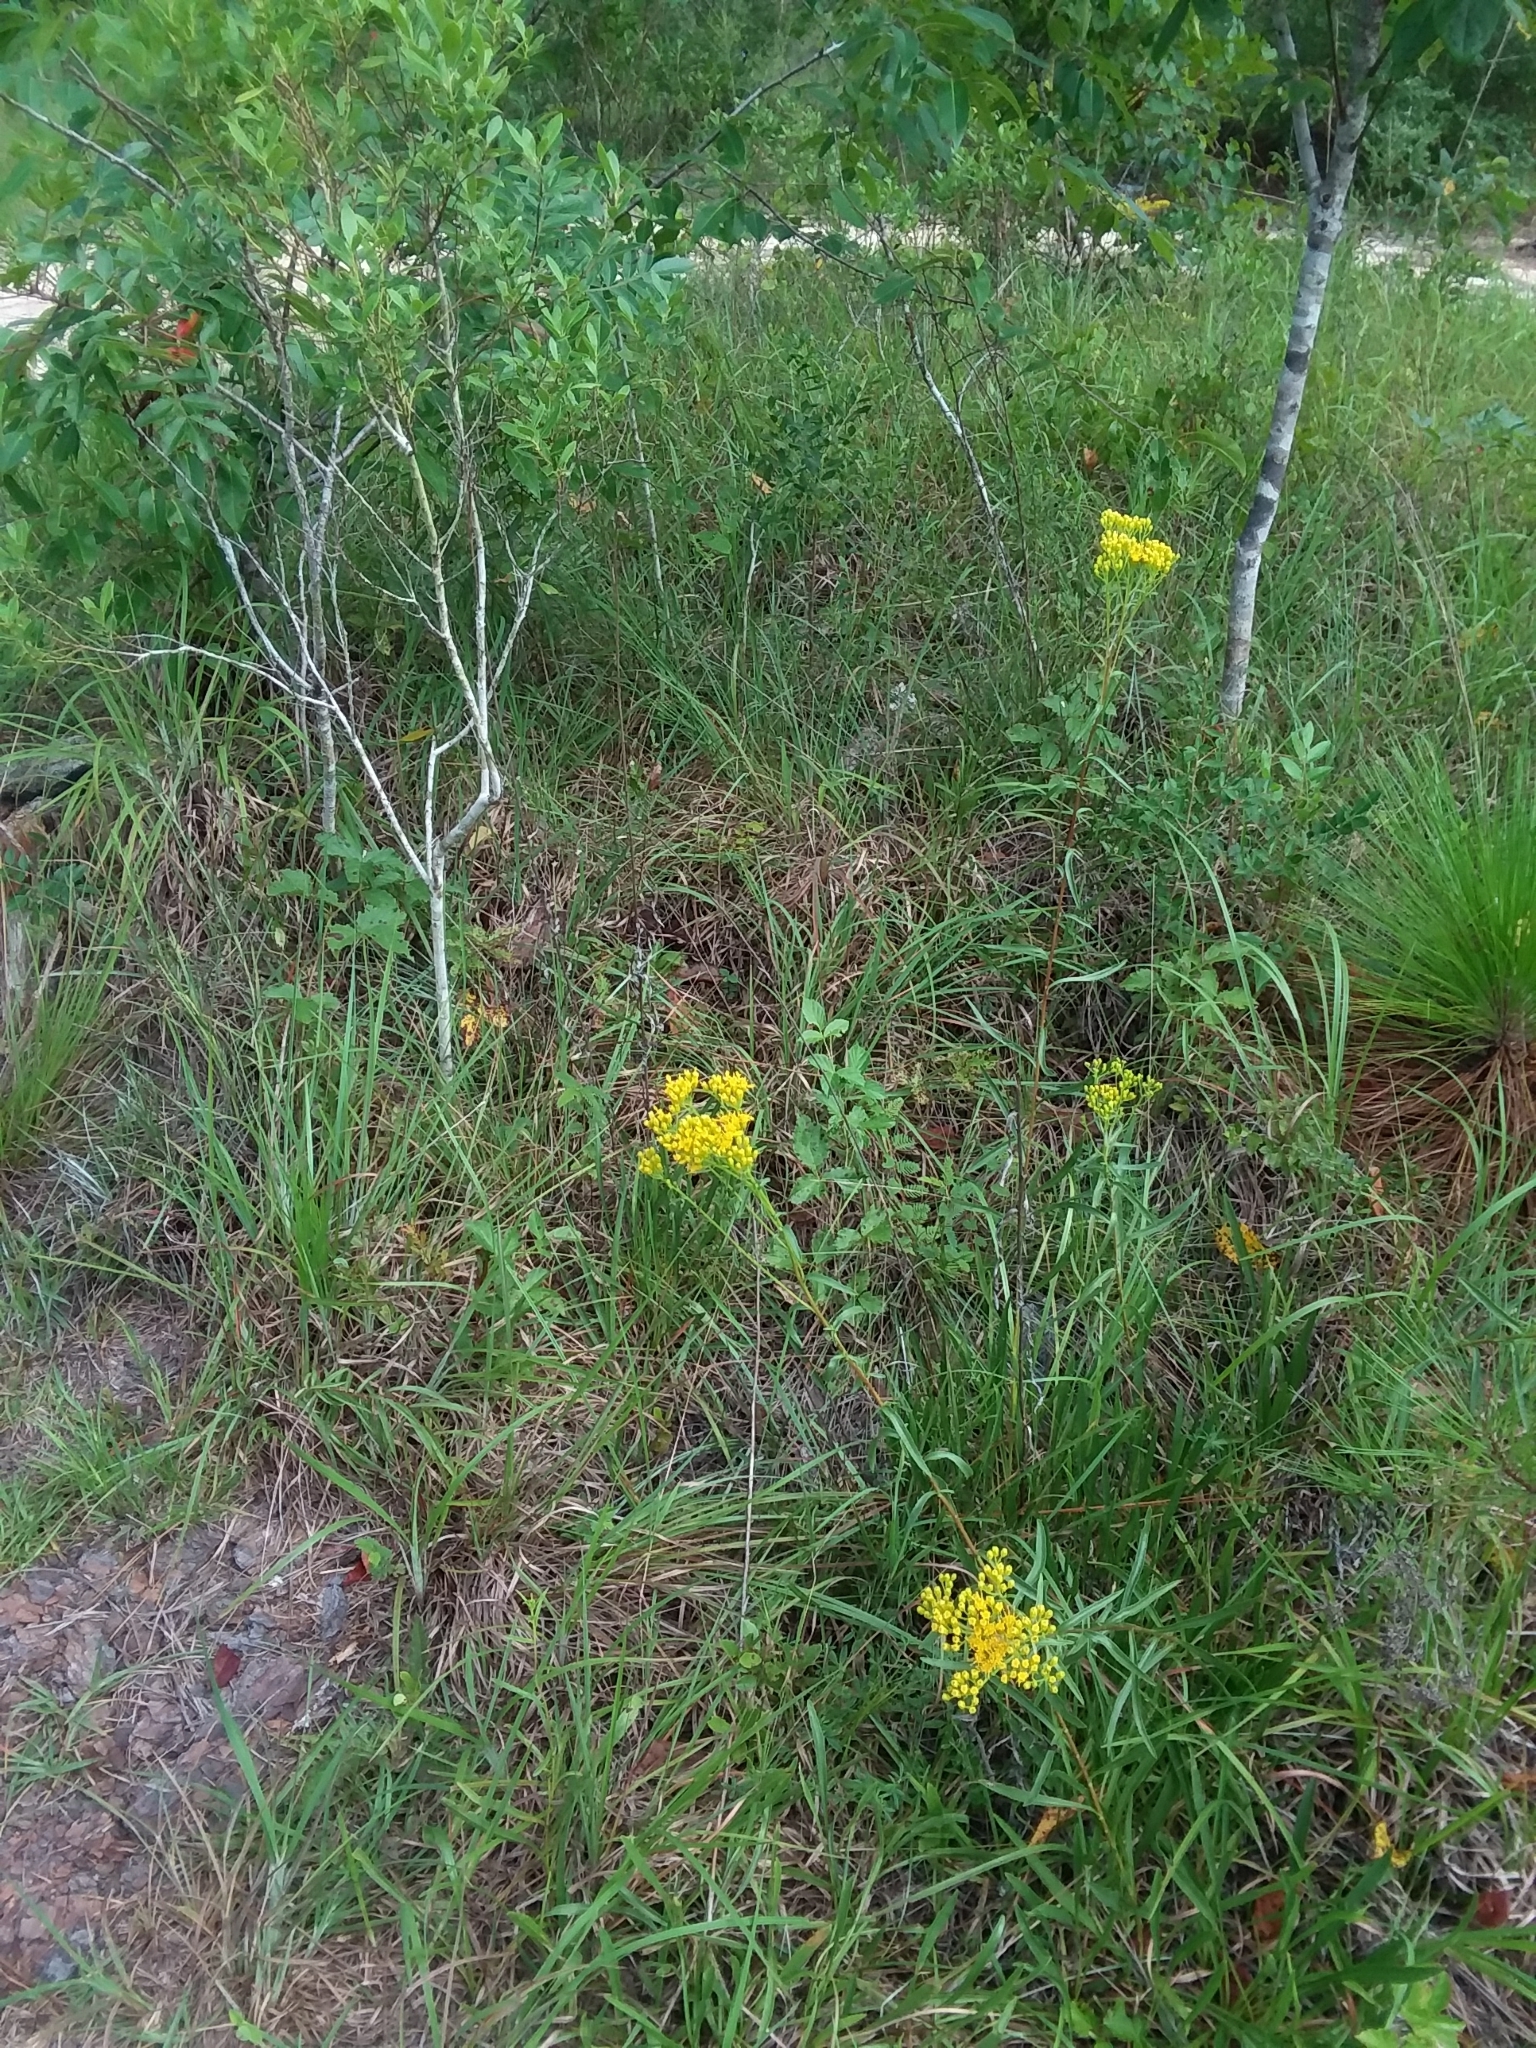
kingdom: Plantae
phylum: Tracheophyta
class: Magnoliopsida
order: Asterales
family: Asteraceae
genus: Solidago
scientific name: Solidago nitida
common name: Shiny goldenrod
